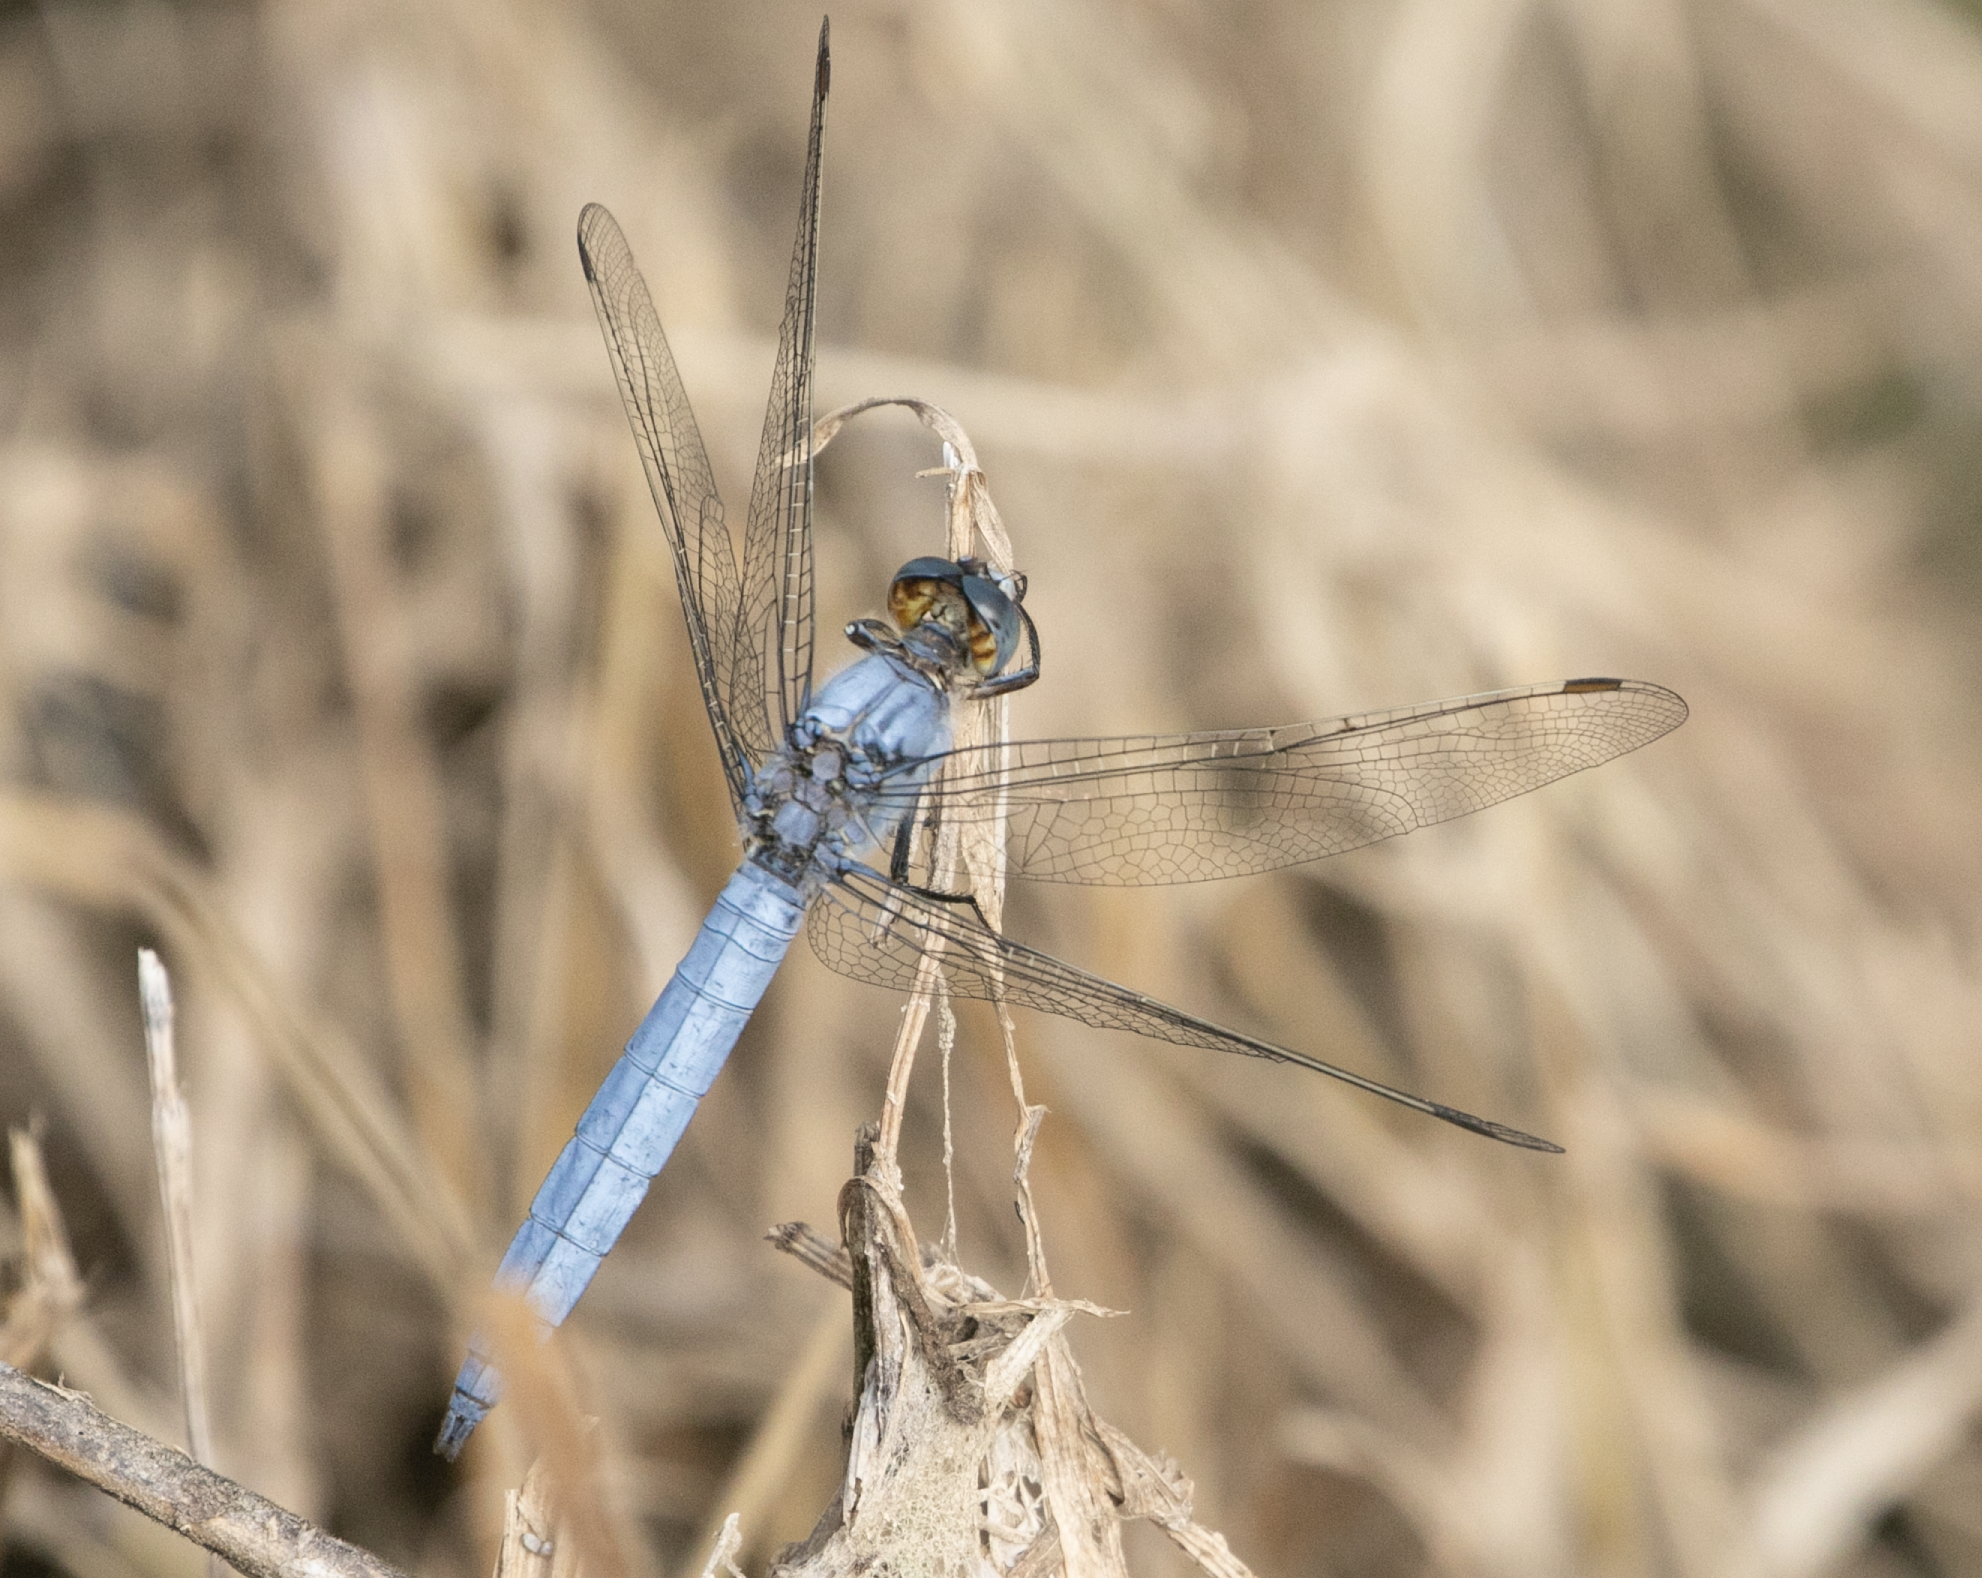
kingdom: Animalia
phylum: Arthropoda
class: Insecta
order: Odonata
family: Libellulidae
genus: Orthetrum
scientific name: Orthetrum brunneum
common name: Southern skimmer
